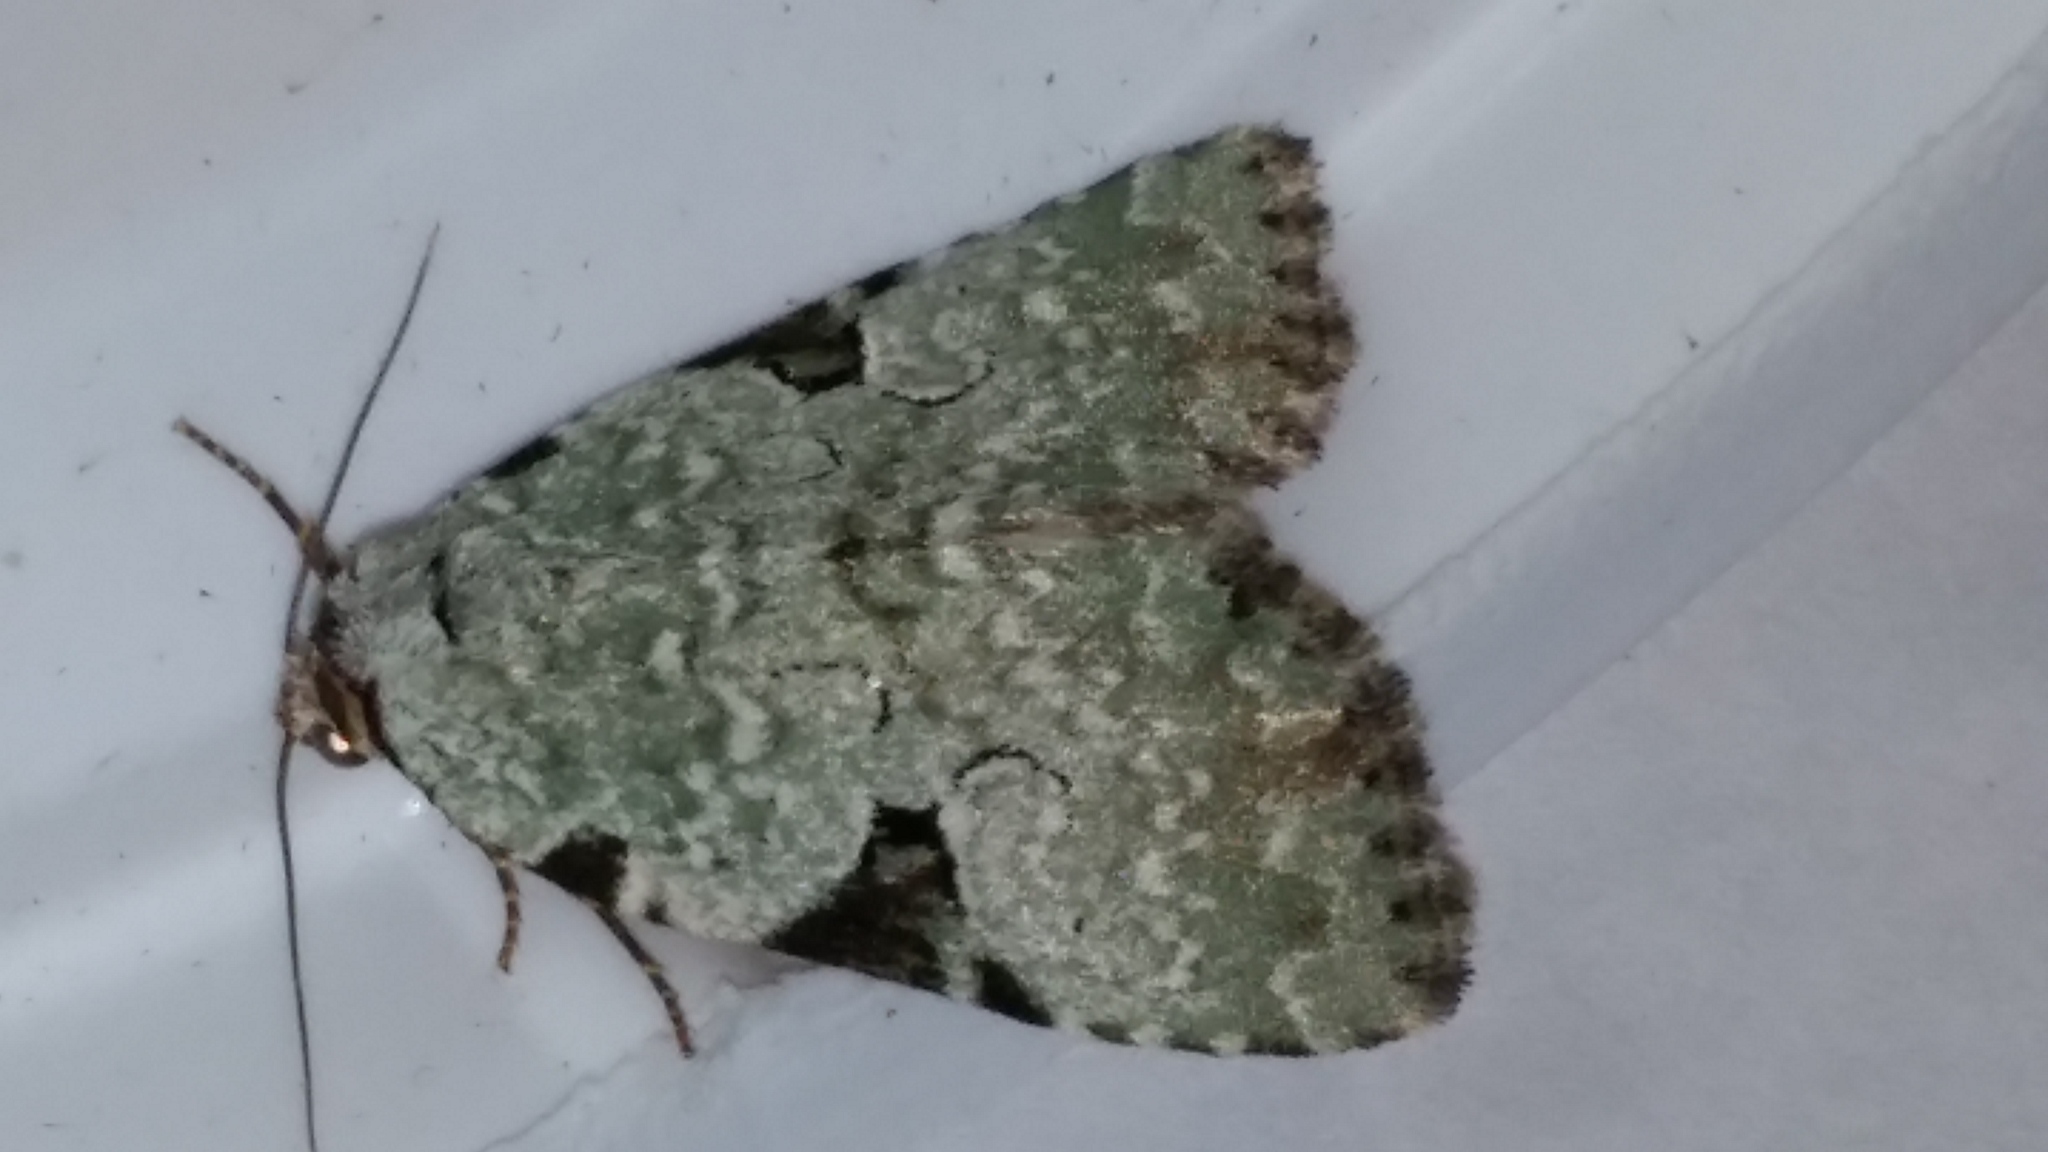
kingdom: Animalia
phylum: Arthropoda
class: Insecta
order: Lepidoptera
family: Noctuidae
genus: Leuconycta
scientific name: Leuconycta diphteroides
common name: Green leuconycta moth
